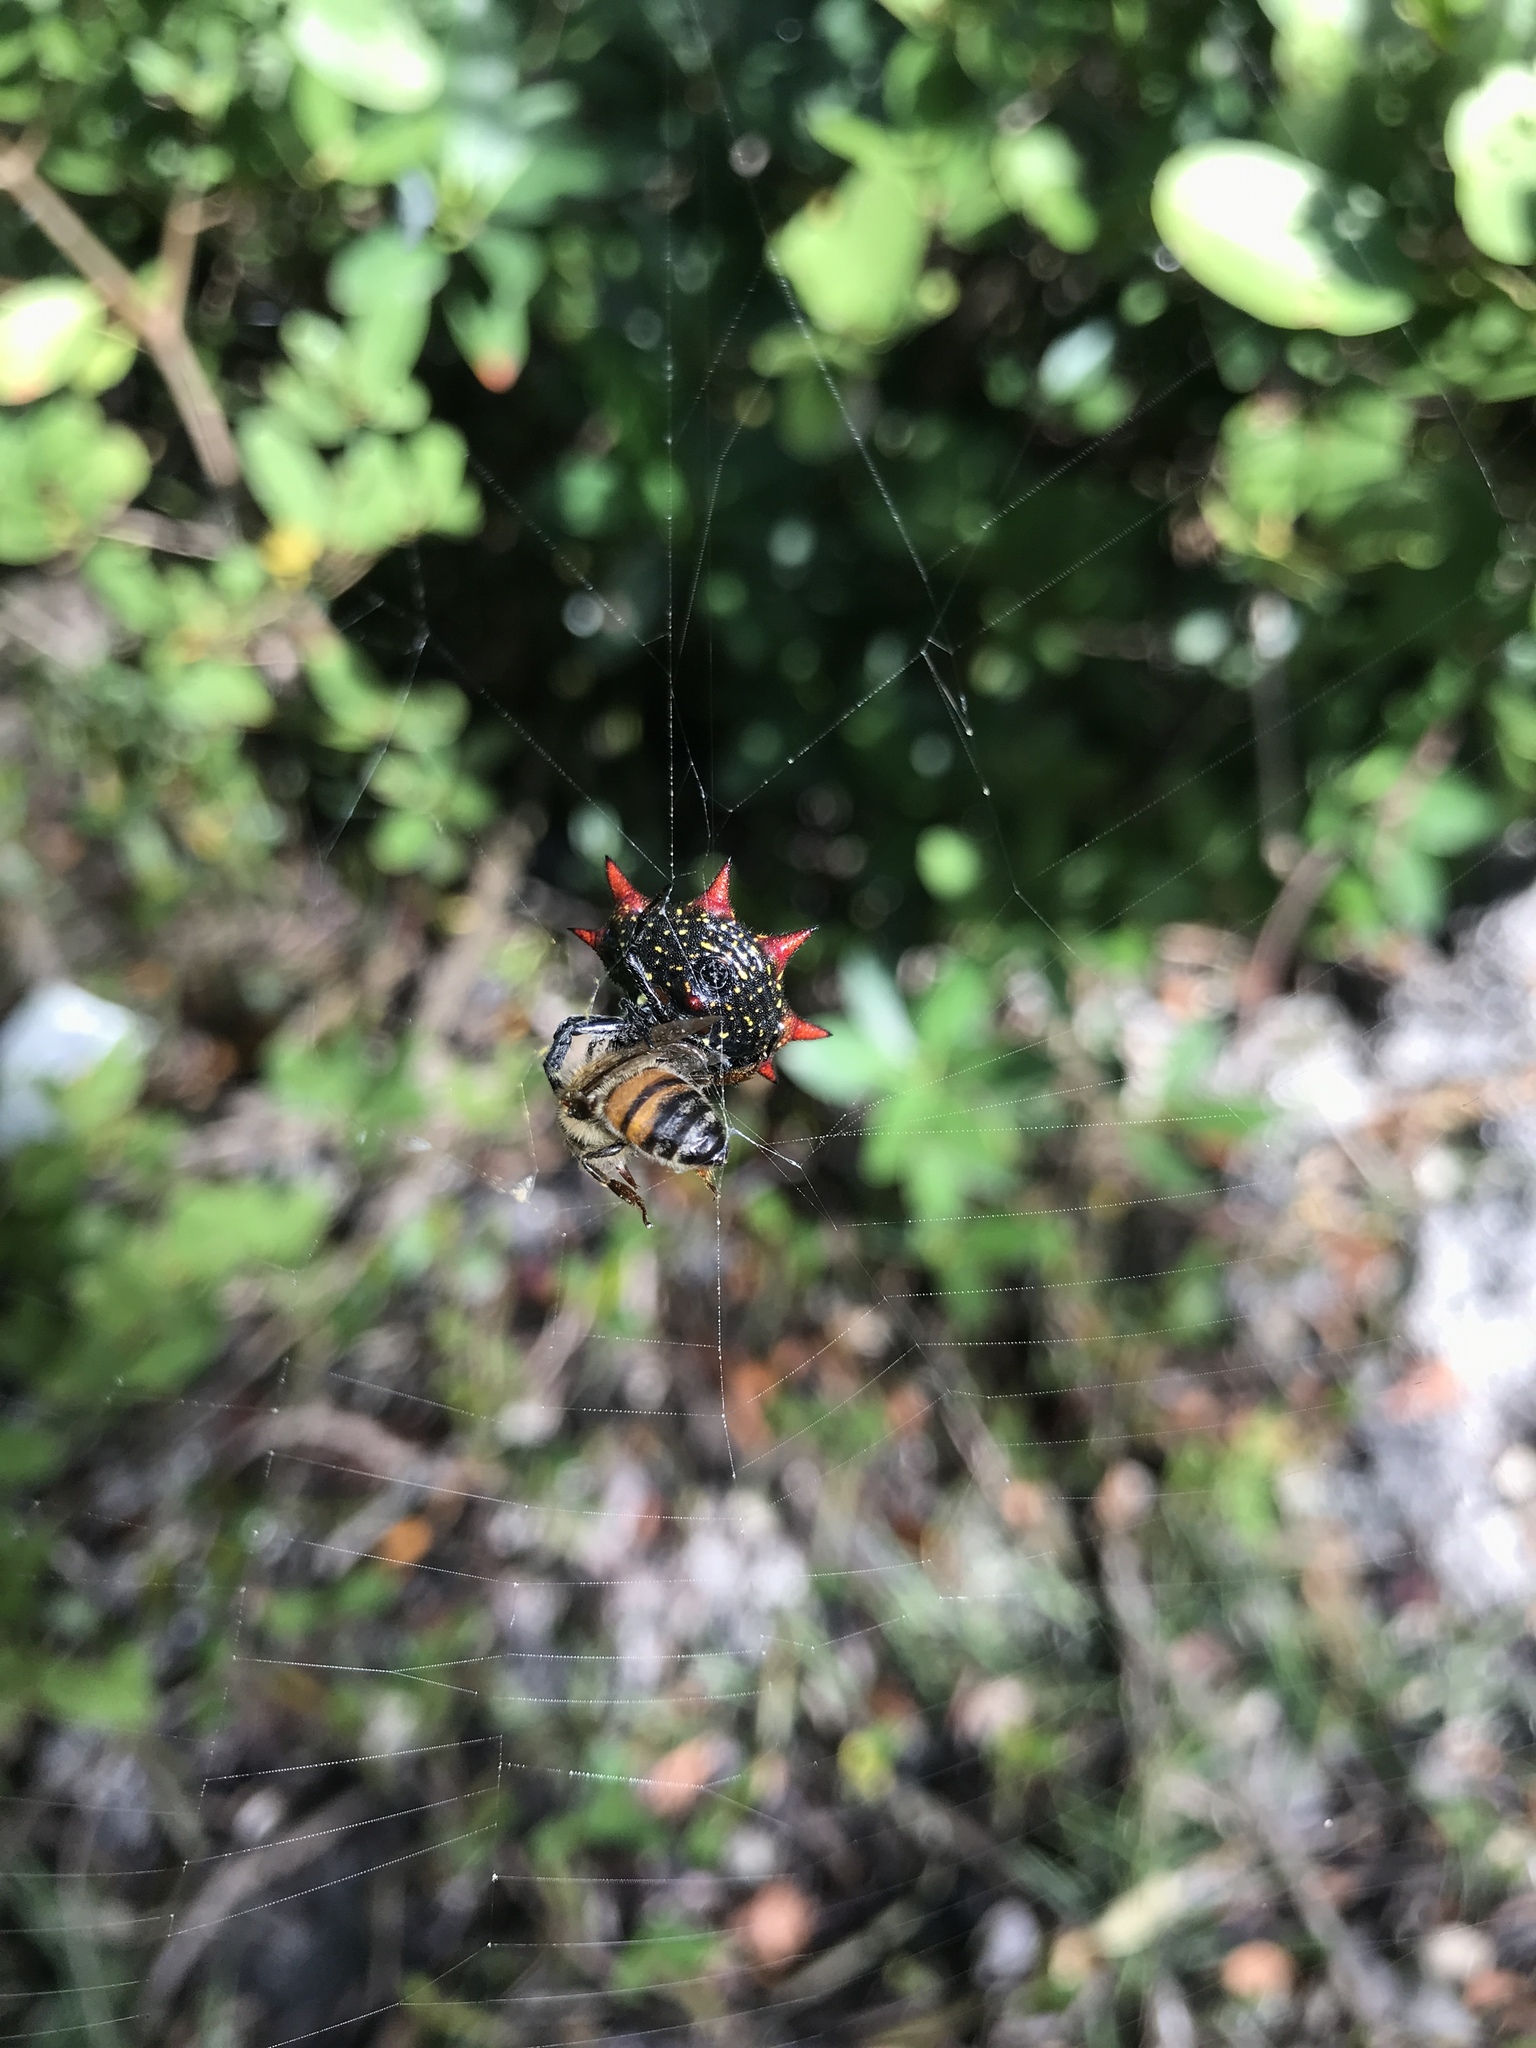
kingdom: Animalia
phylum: Arthropoda
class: Arachnida
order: Araneae
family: Araneidae
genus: Gasteracantha
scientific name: Gasteracantha cancriformis
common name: Orb weavers
